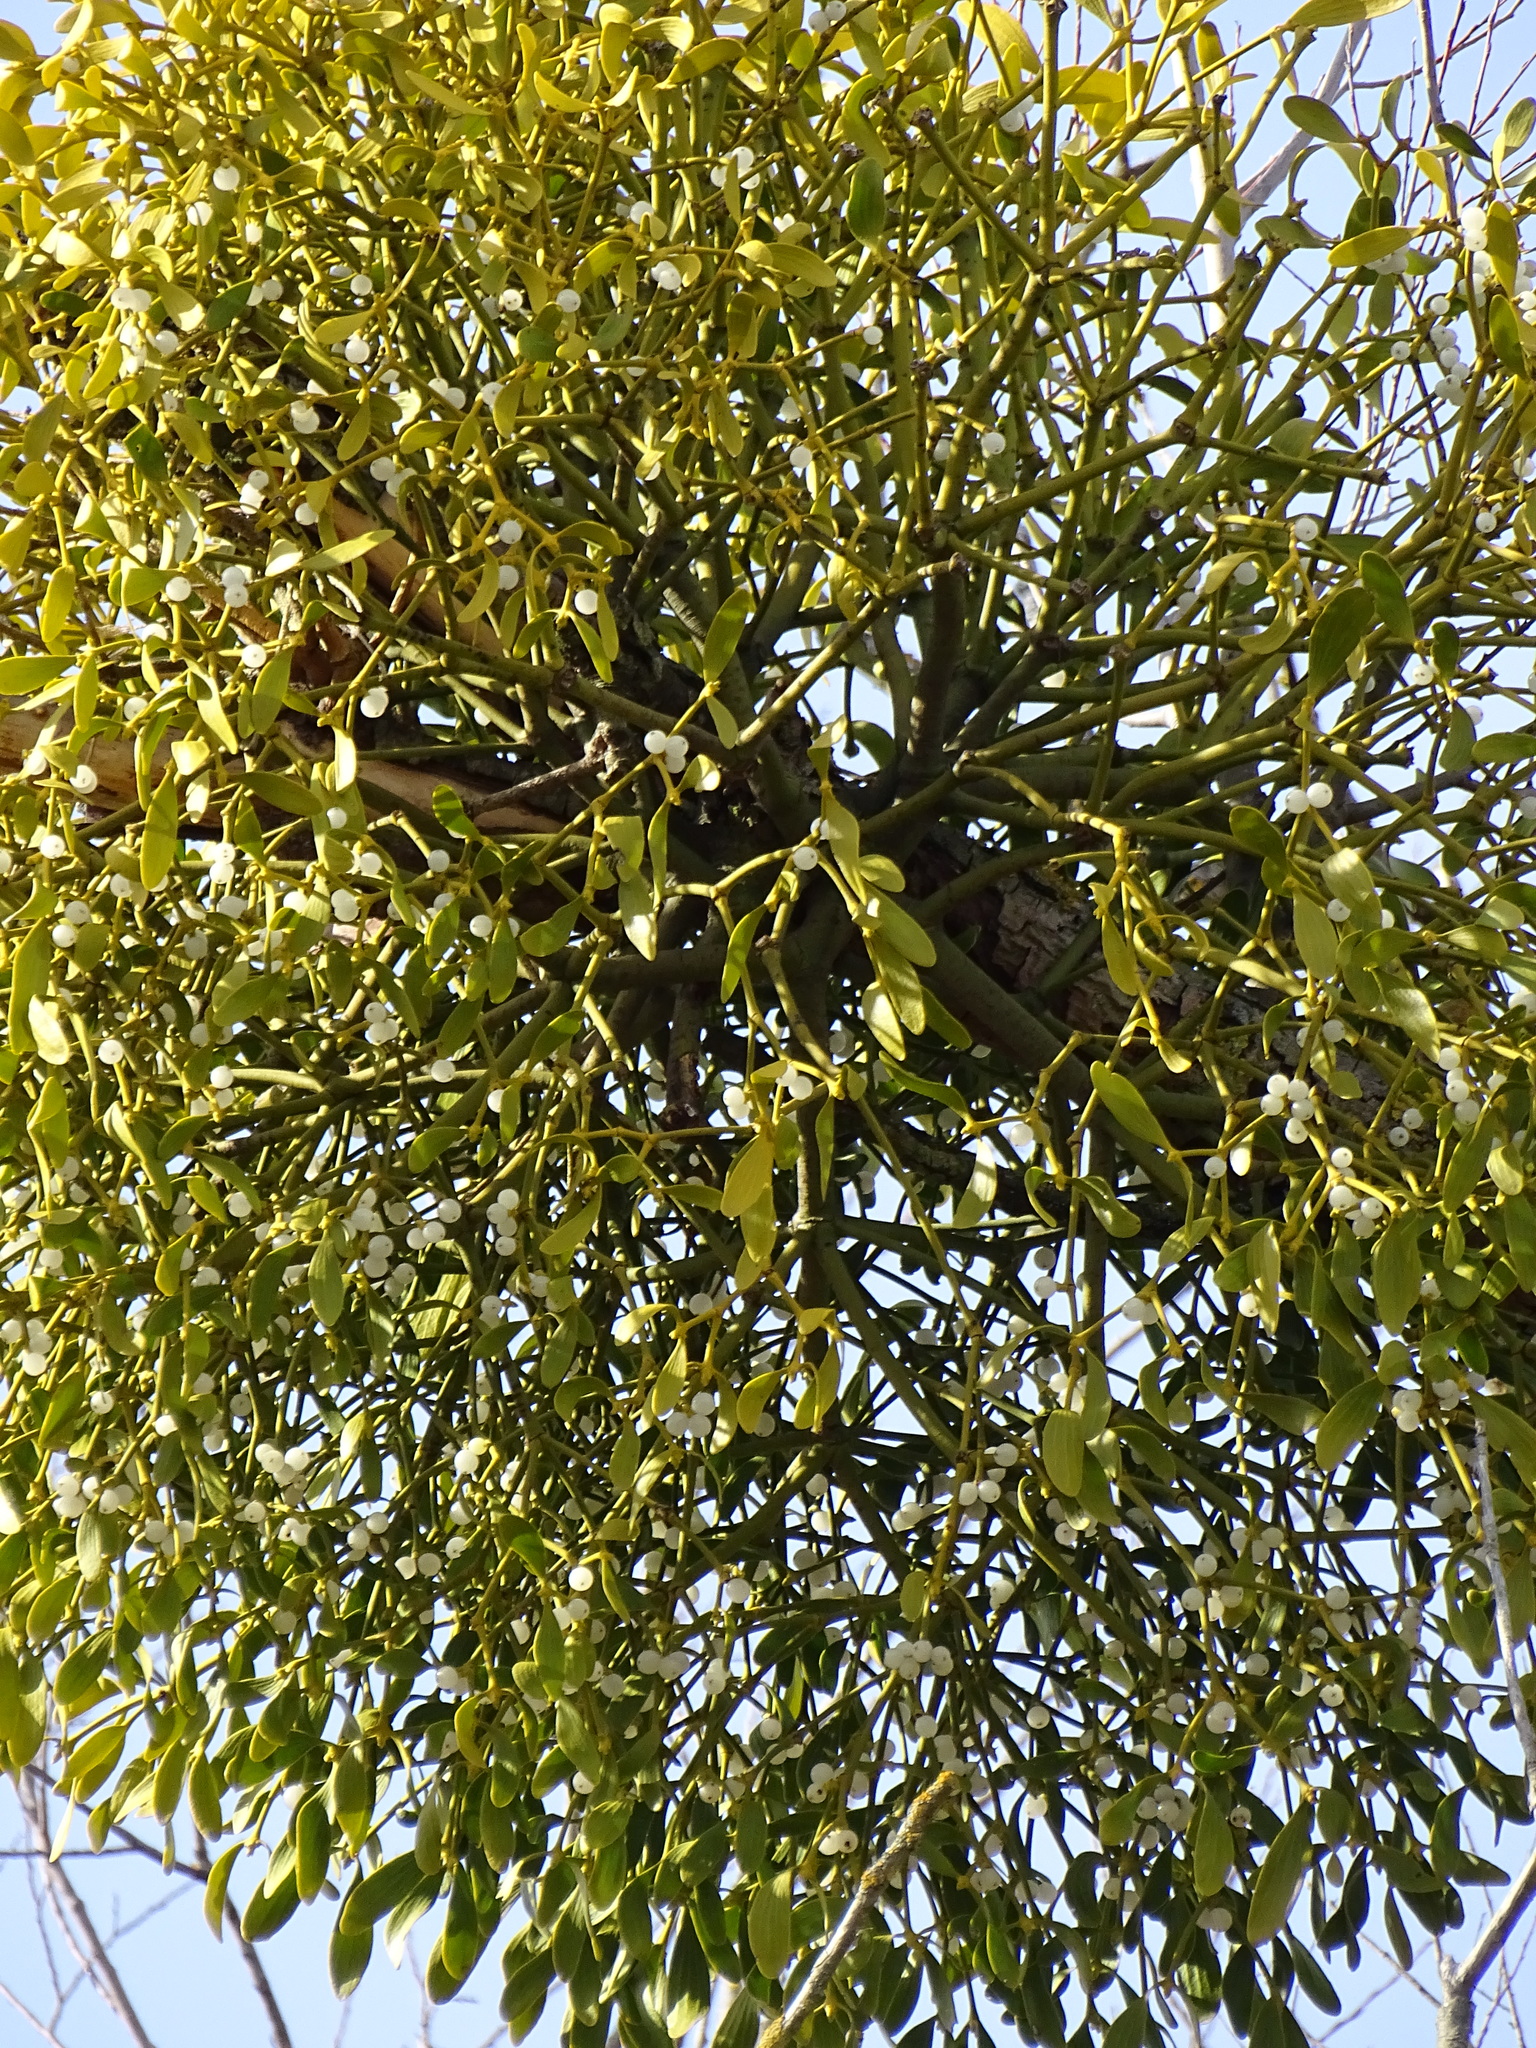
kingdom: Plantae
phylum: Tracheophyta
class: Magnoliopsida
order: Santalales
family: Viscaceae
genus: Viscum
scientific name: Viscum album
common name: Mistletoe
